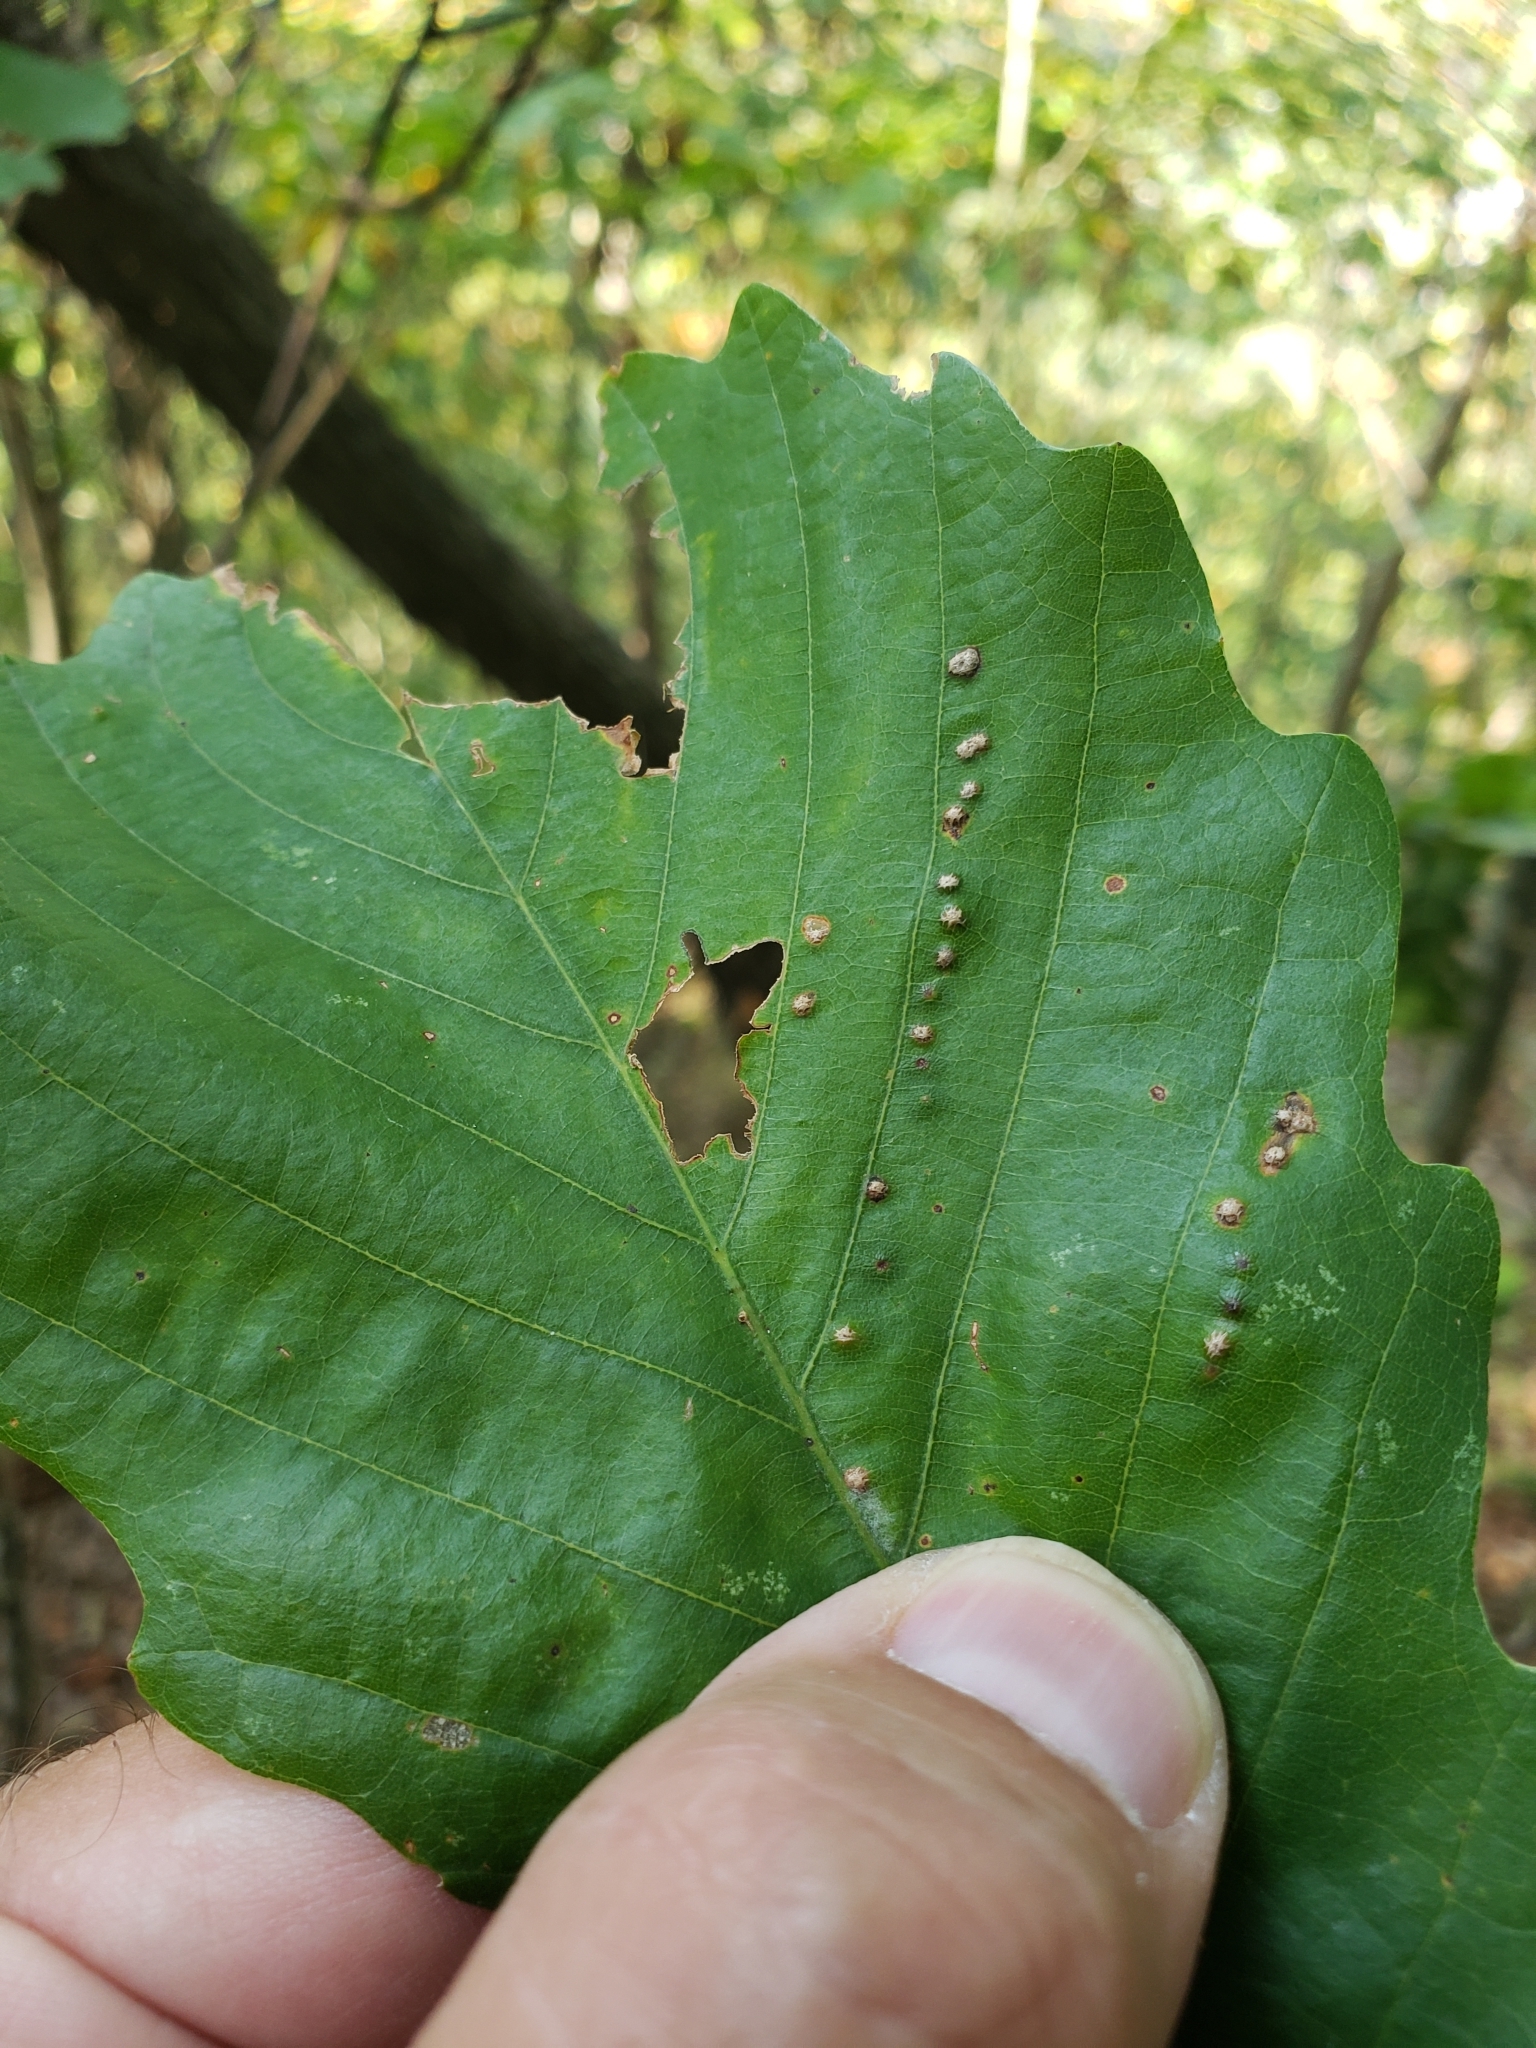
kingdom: Animalia
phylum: Arthropoda
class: Insecta
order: Hymenoptera
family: Cynipidae
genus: Neuroterus
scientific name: Neuroterus niger
